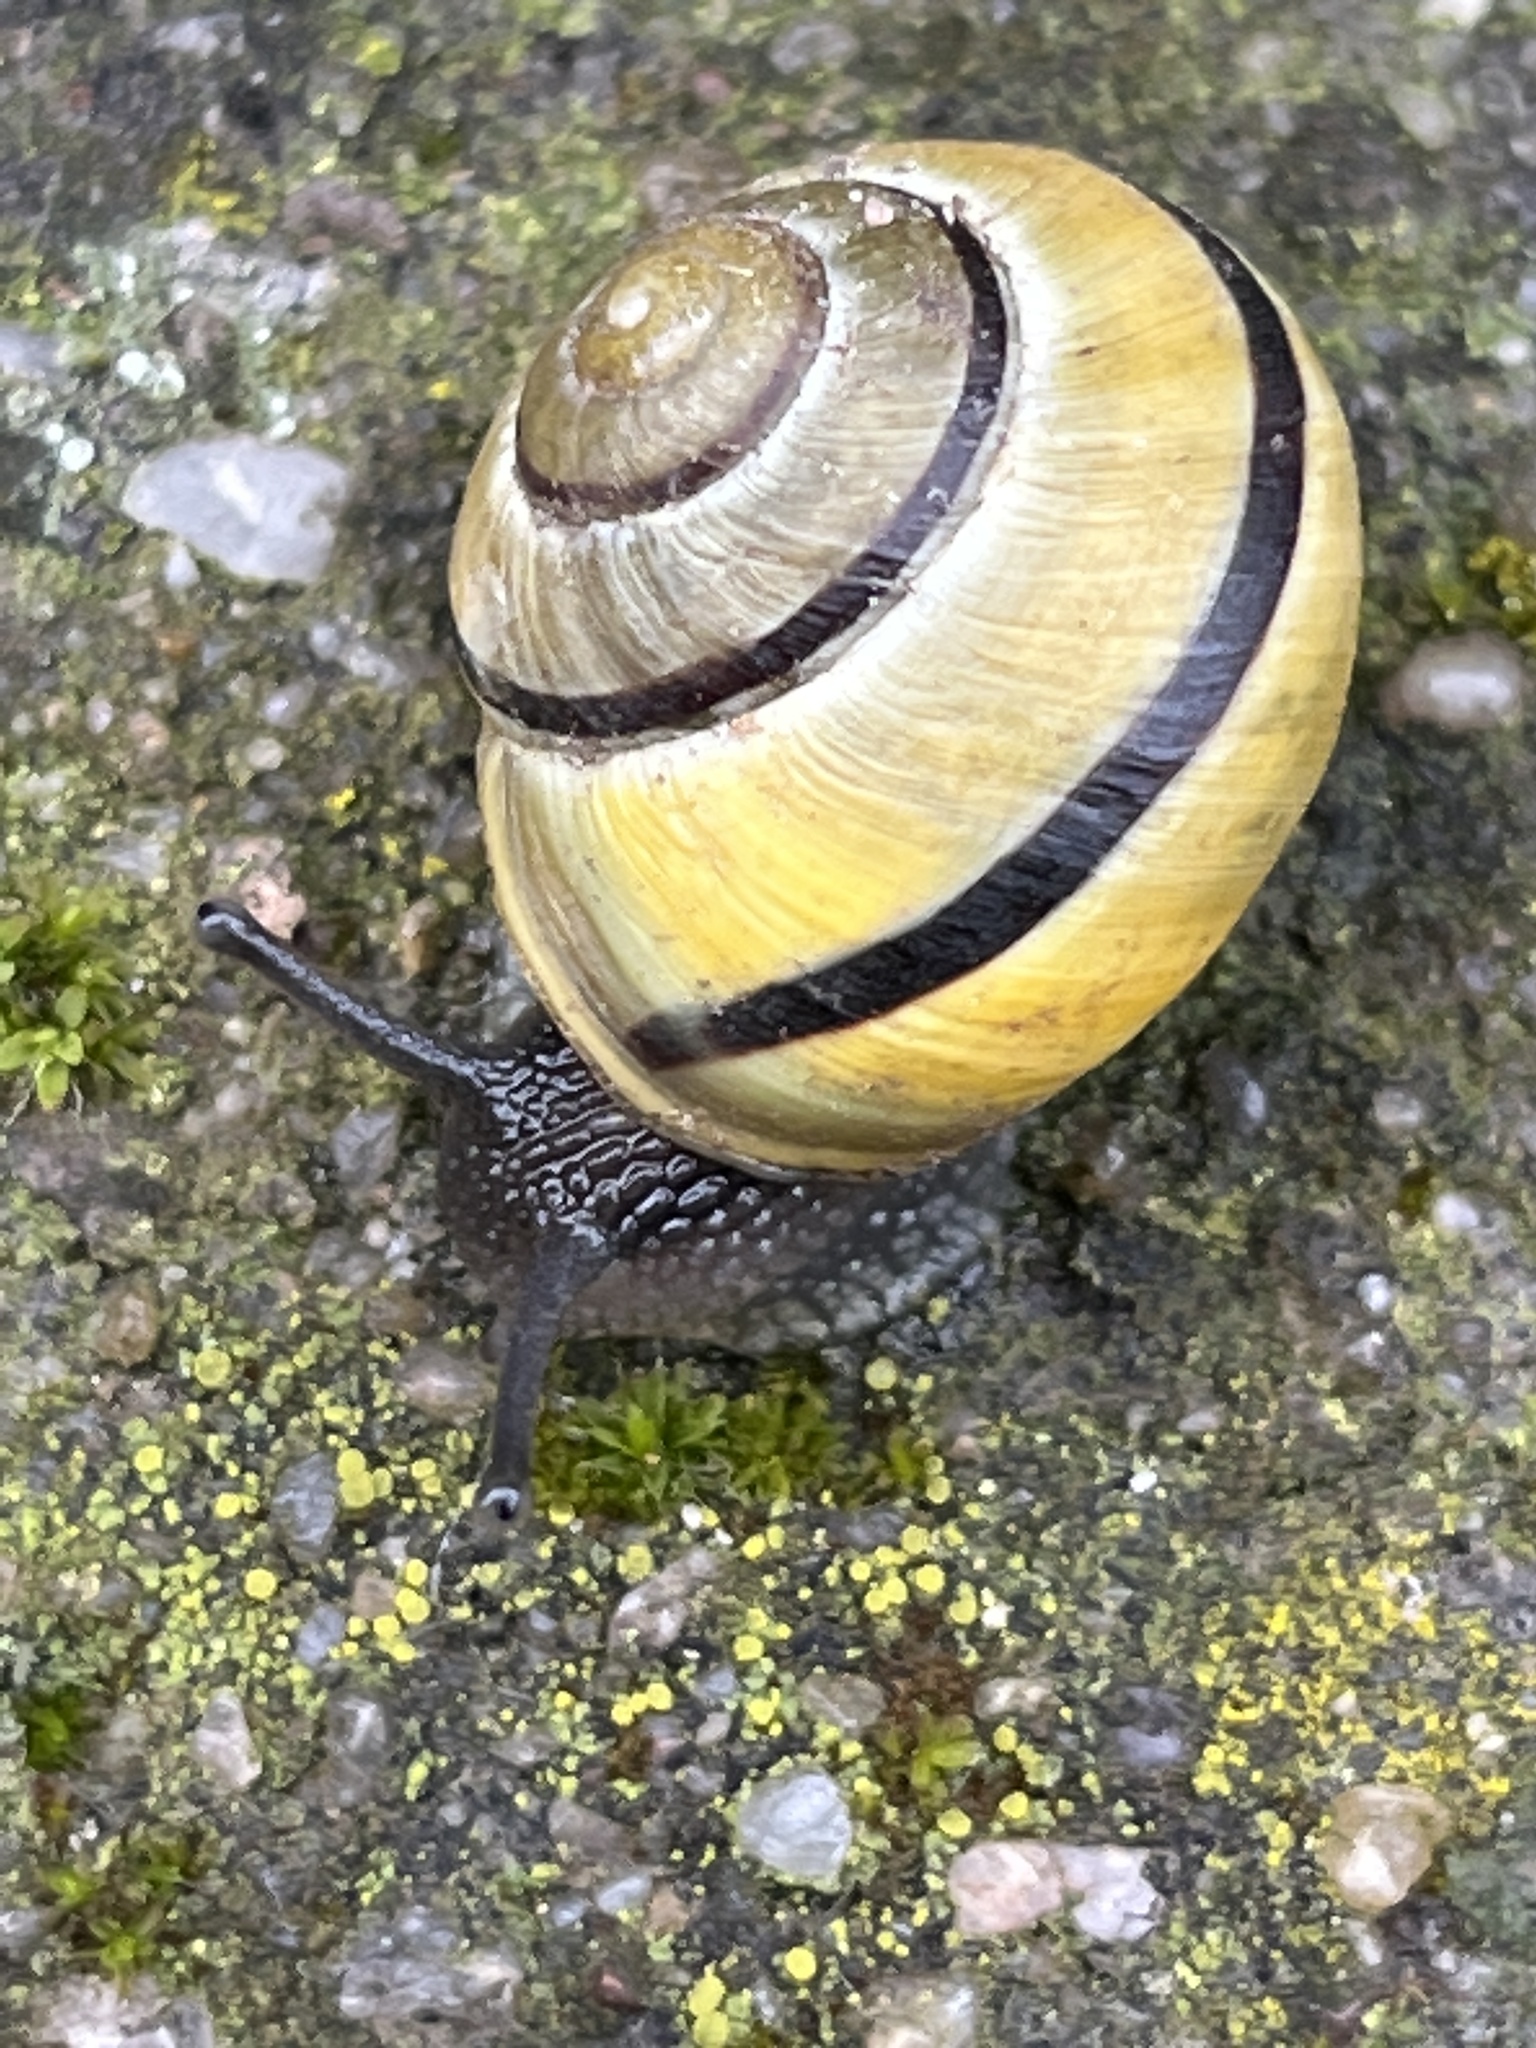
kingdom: Animalia
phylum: Mollusca
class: Gastropoda
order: Stylommatophora
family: Helicidae
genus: Cepaea
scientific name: Cepaea nemoralis
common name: Grovesnail
